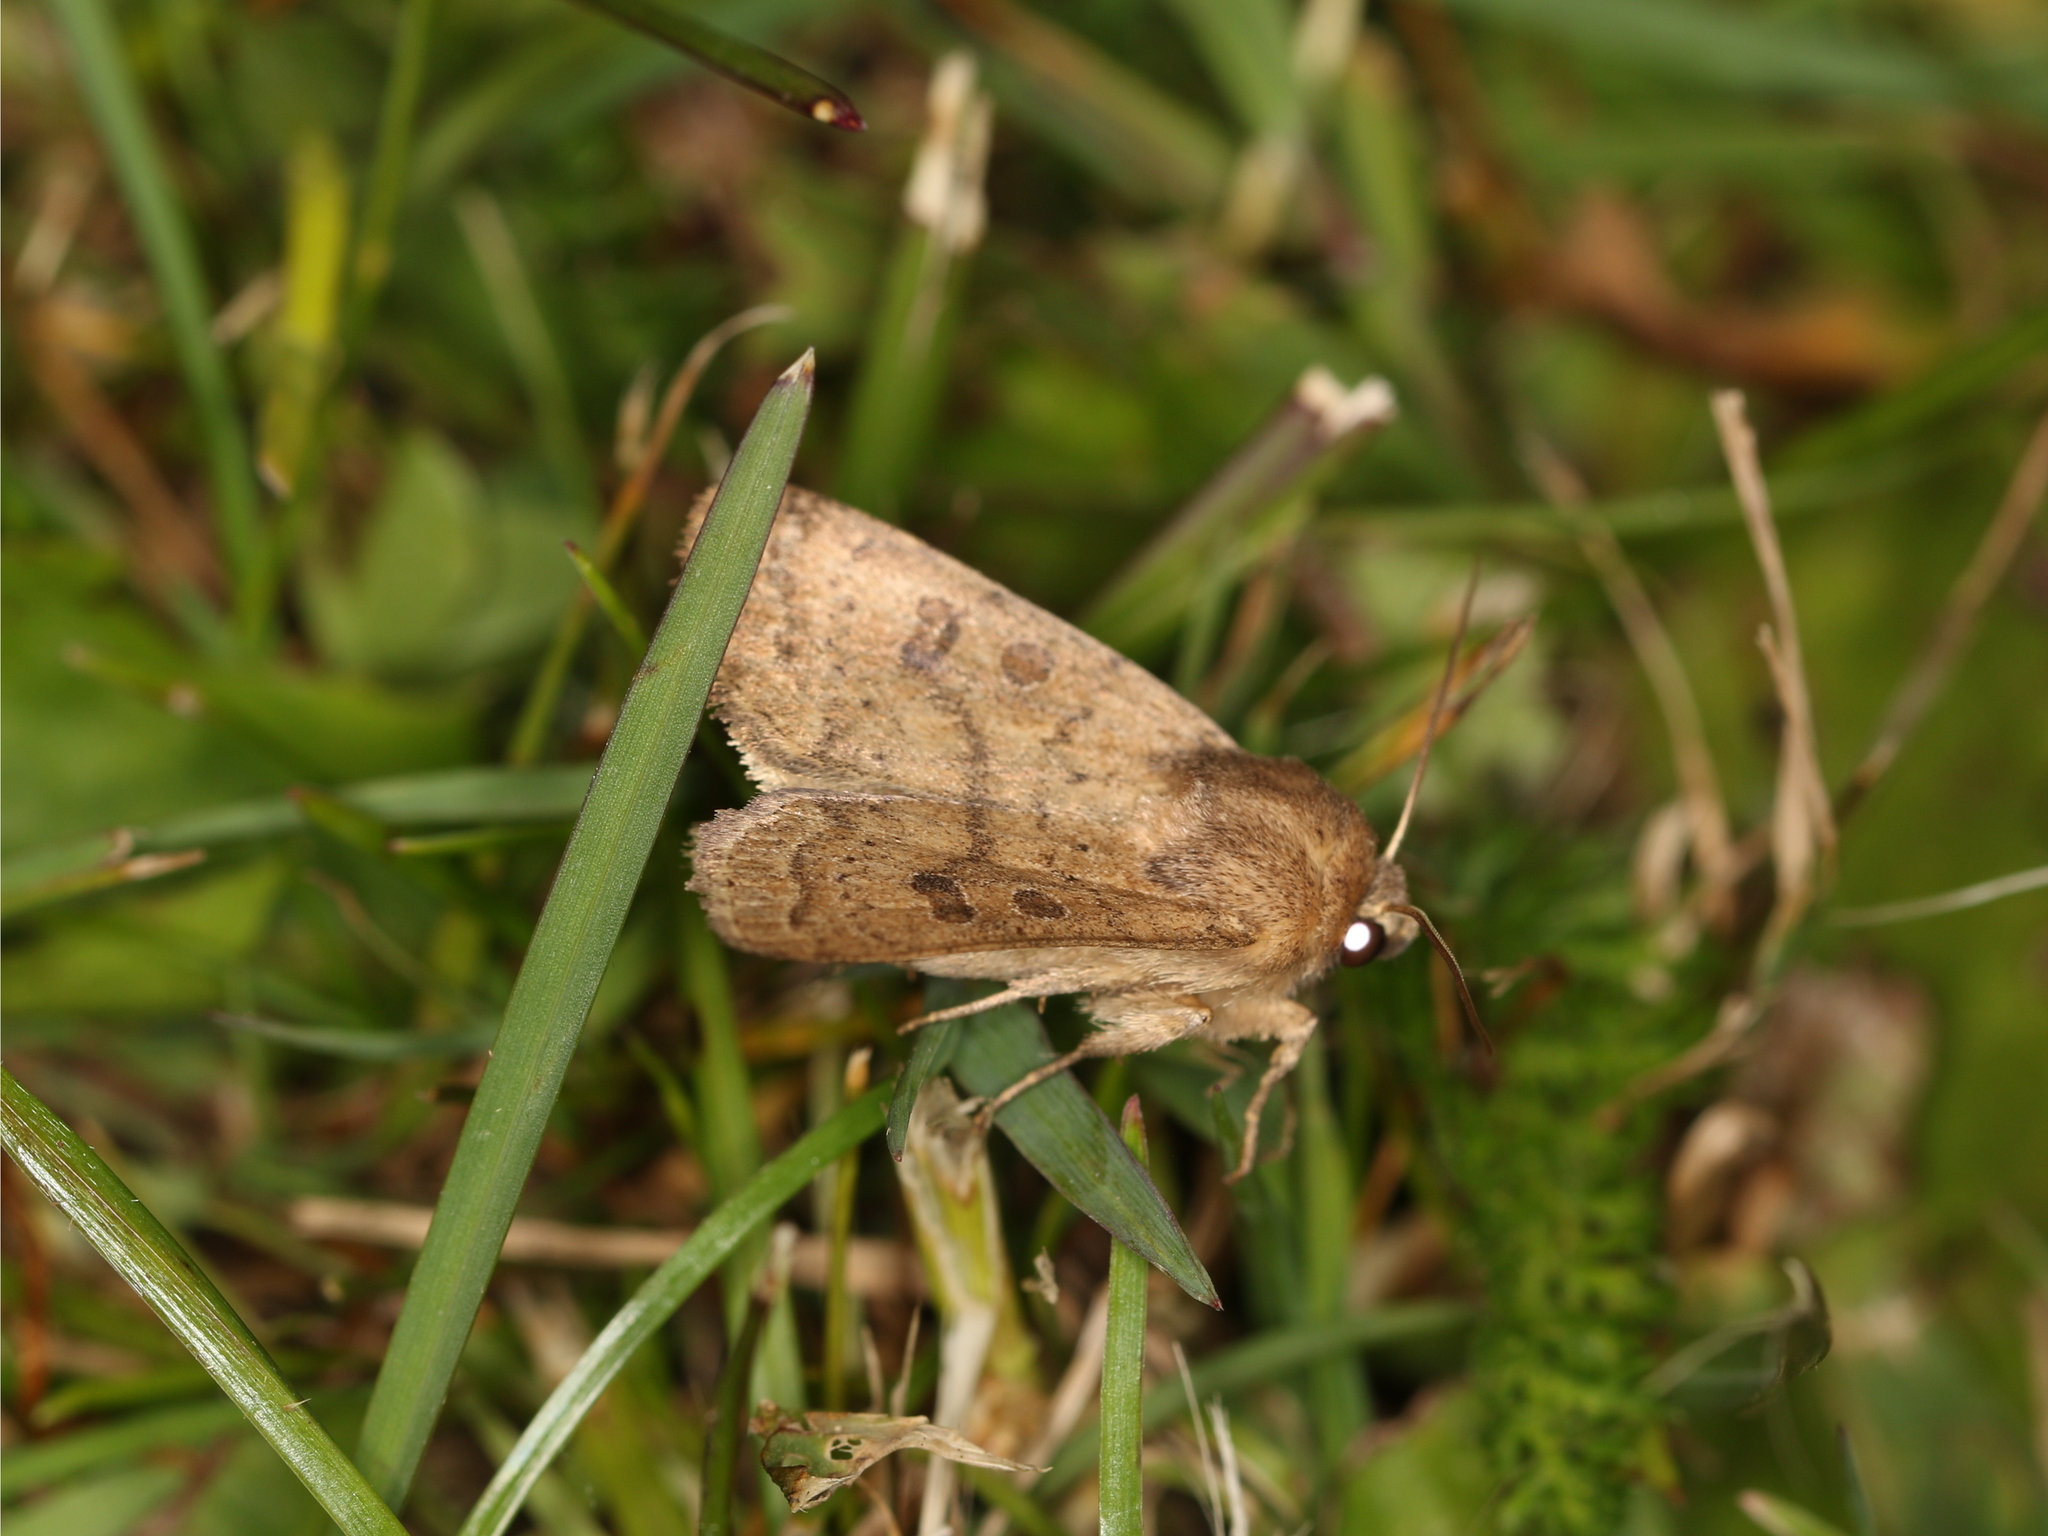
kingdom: Animalia
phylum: Arthropoda
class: Insecta
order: Lepidoptera
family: Noctuidae
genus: Hoplodrina
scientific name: Hoplodrina octogenaria
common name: Uncertain
